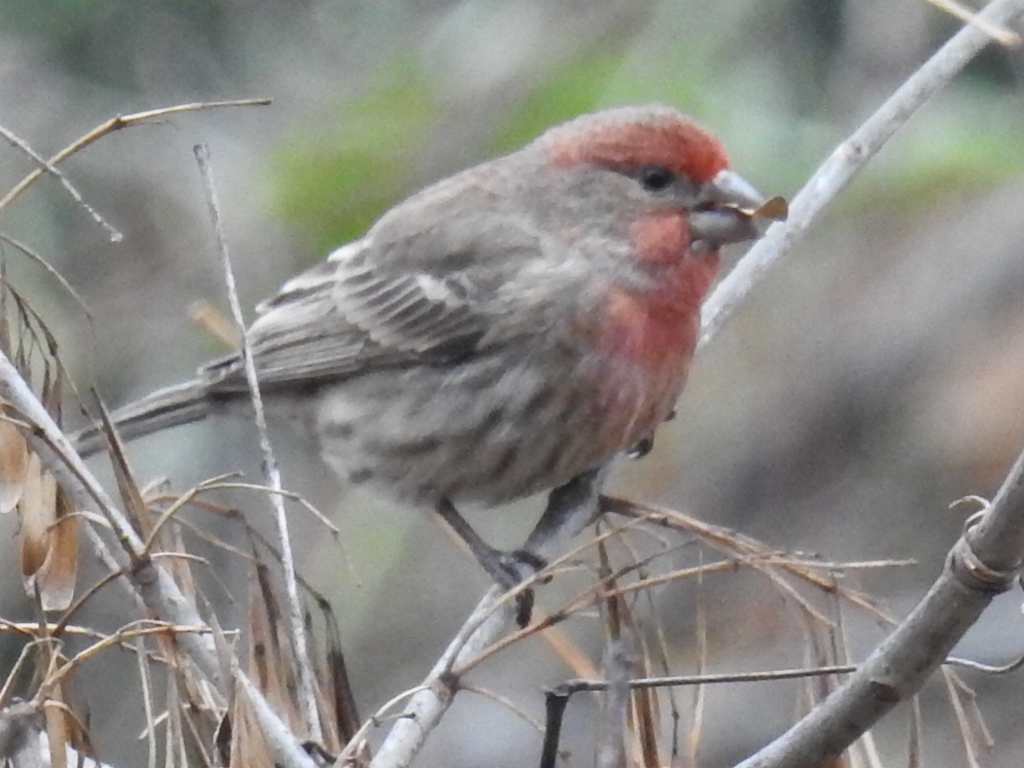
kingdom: Animalia
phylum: Chordata
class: Aves
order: Passeriformes
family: Fringillidae
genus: Haemorhous
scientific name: Haemorhous mexicanus
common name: House finch
